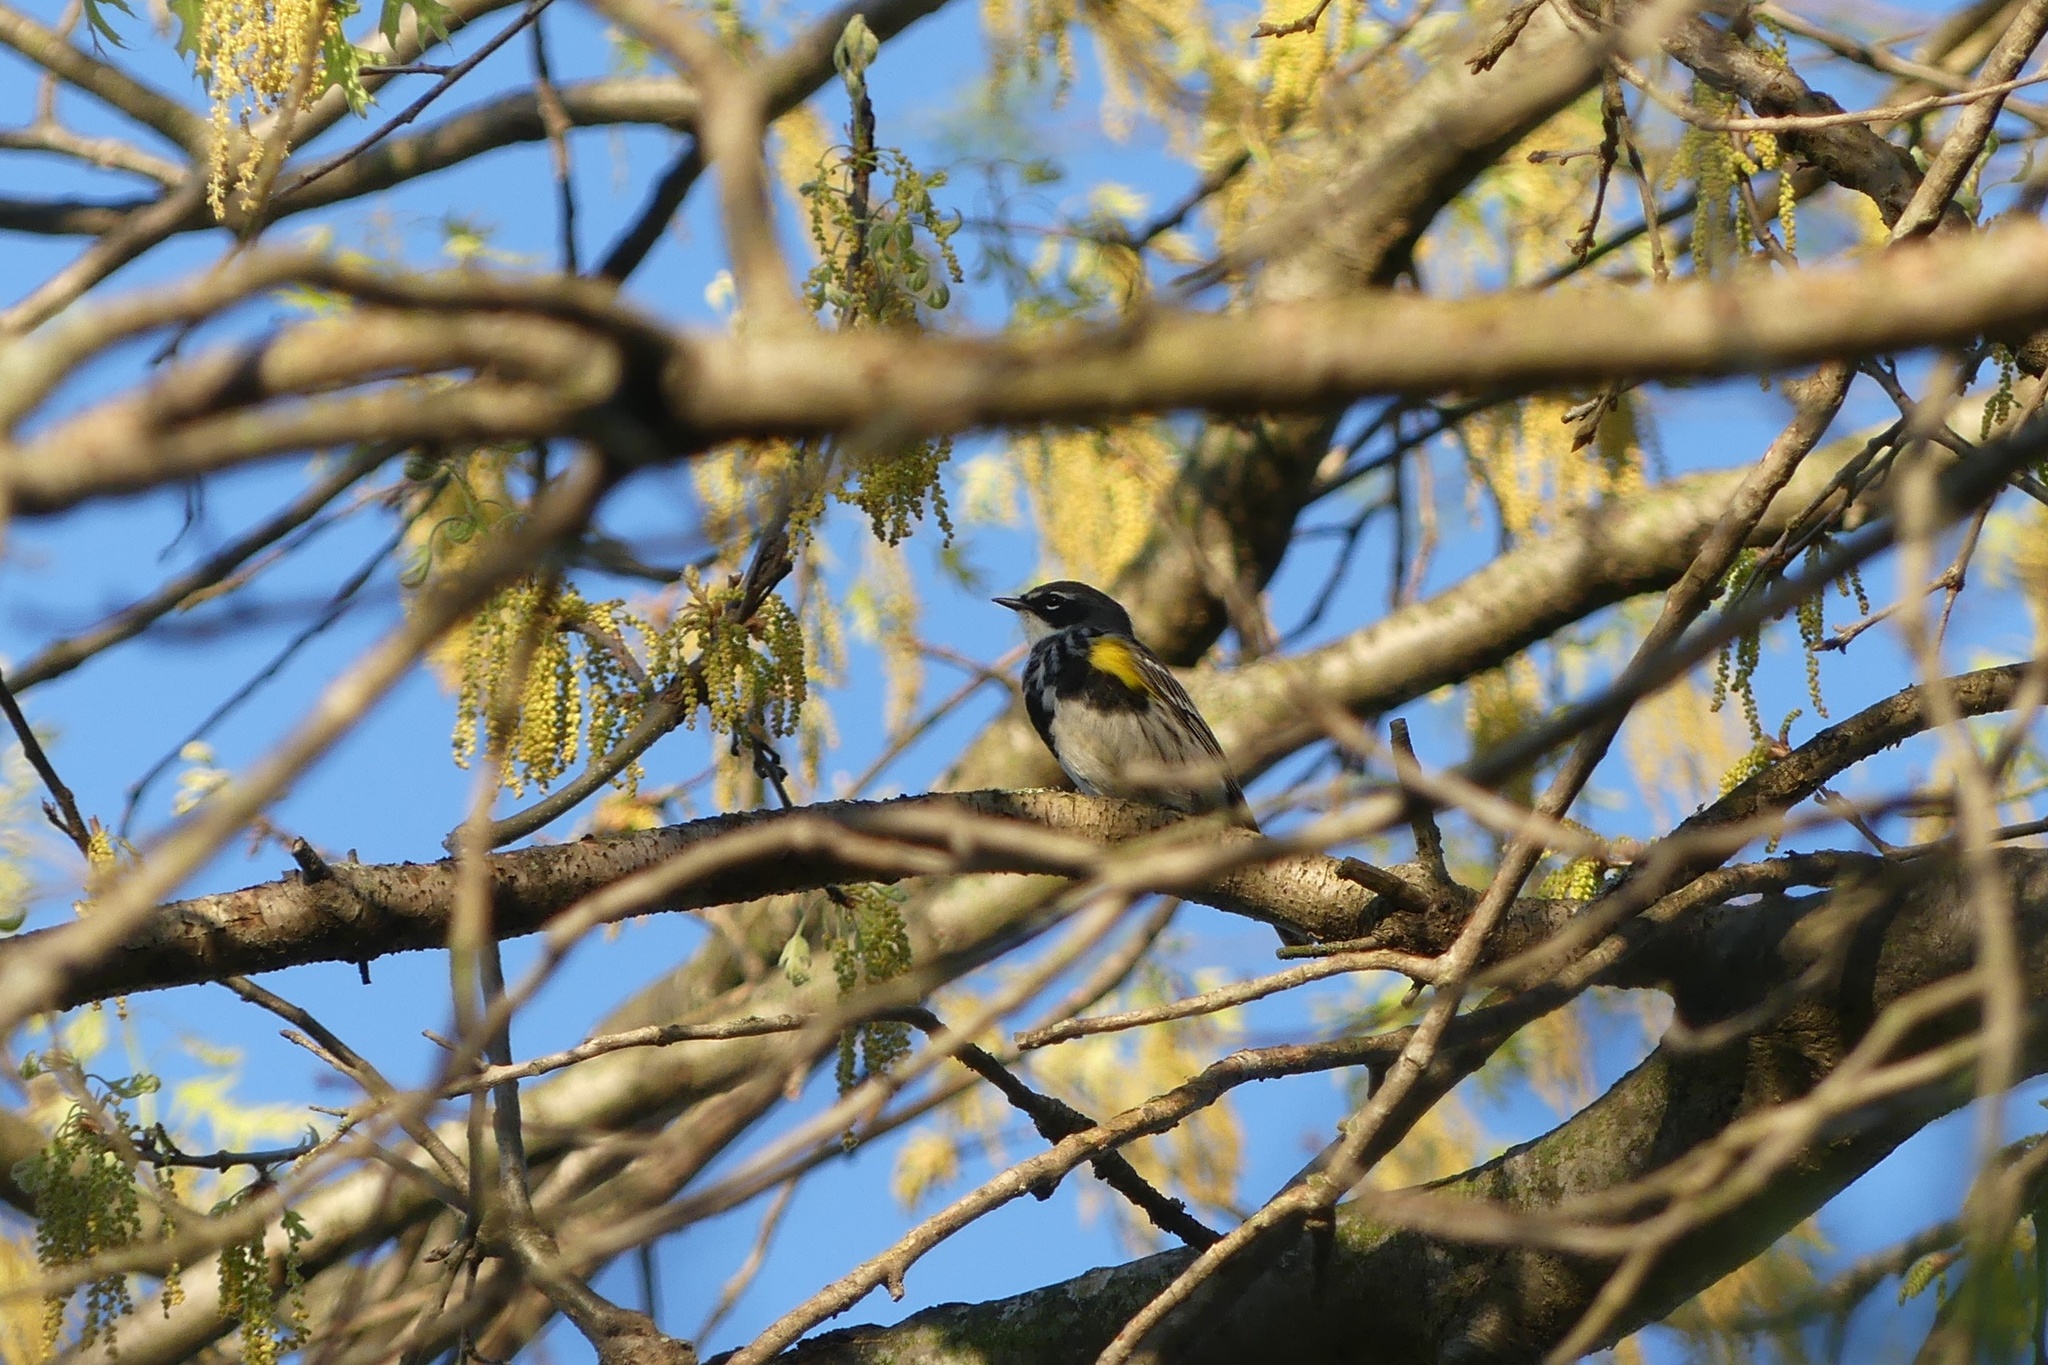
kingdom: Animalia
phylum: Chordata
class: Aves
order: Passeriformes
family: Parulidae
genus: Setophaga
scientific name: Setophaga coronata
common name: Myrtle warbler
